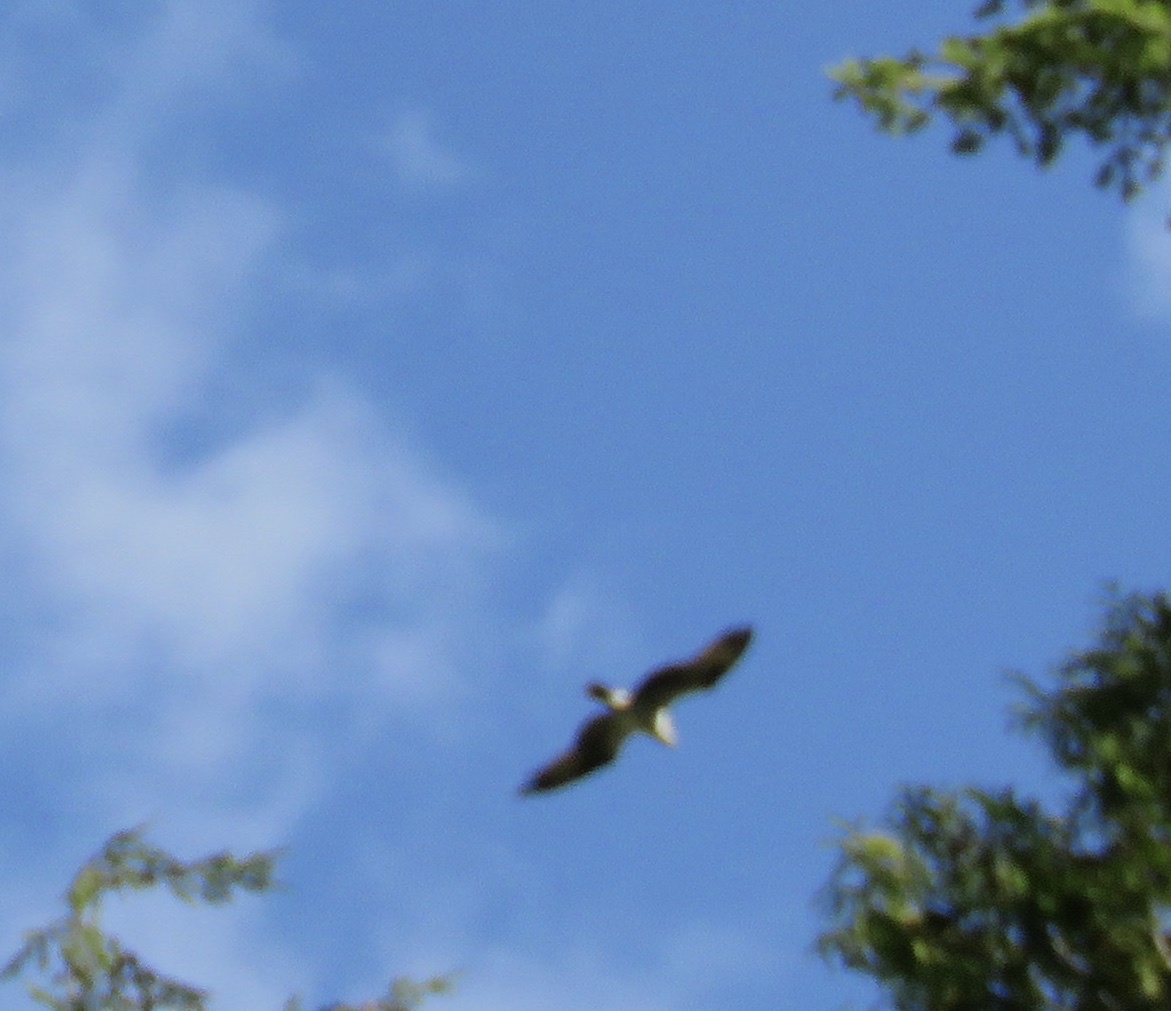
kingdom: Animalia
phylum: Chordata
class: Aves
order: Accipitriformes
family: Pandionidae
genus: Pandion
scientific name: Pandion haliaetus
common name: Osprey
